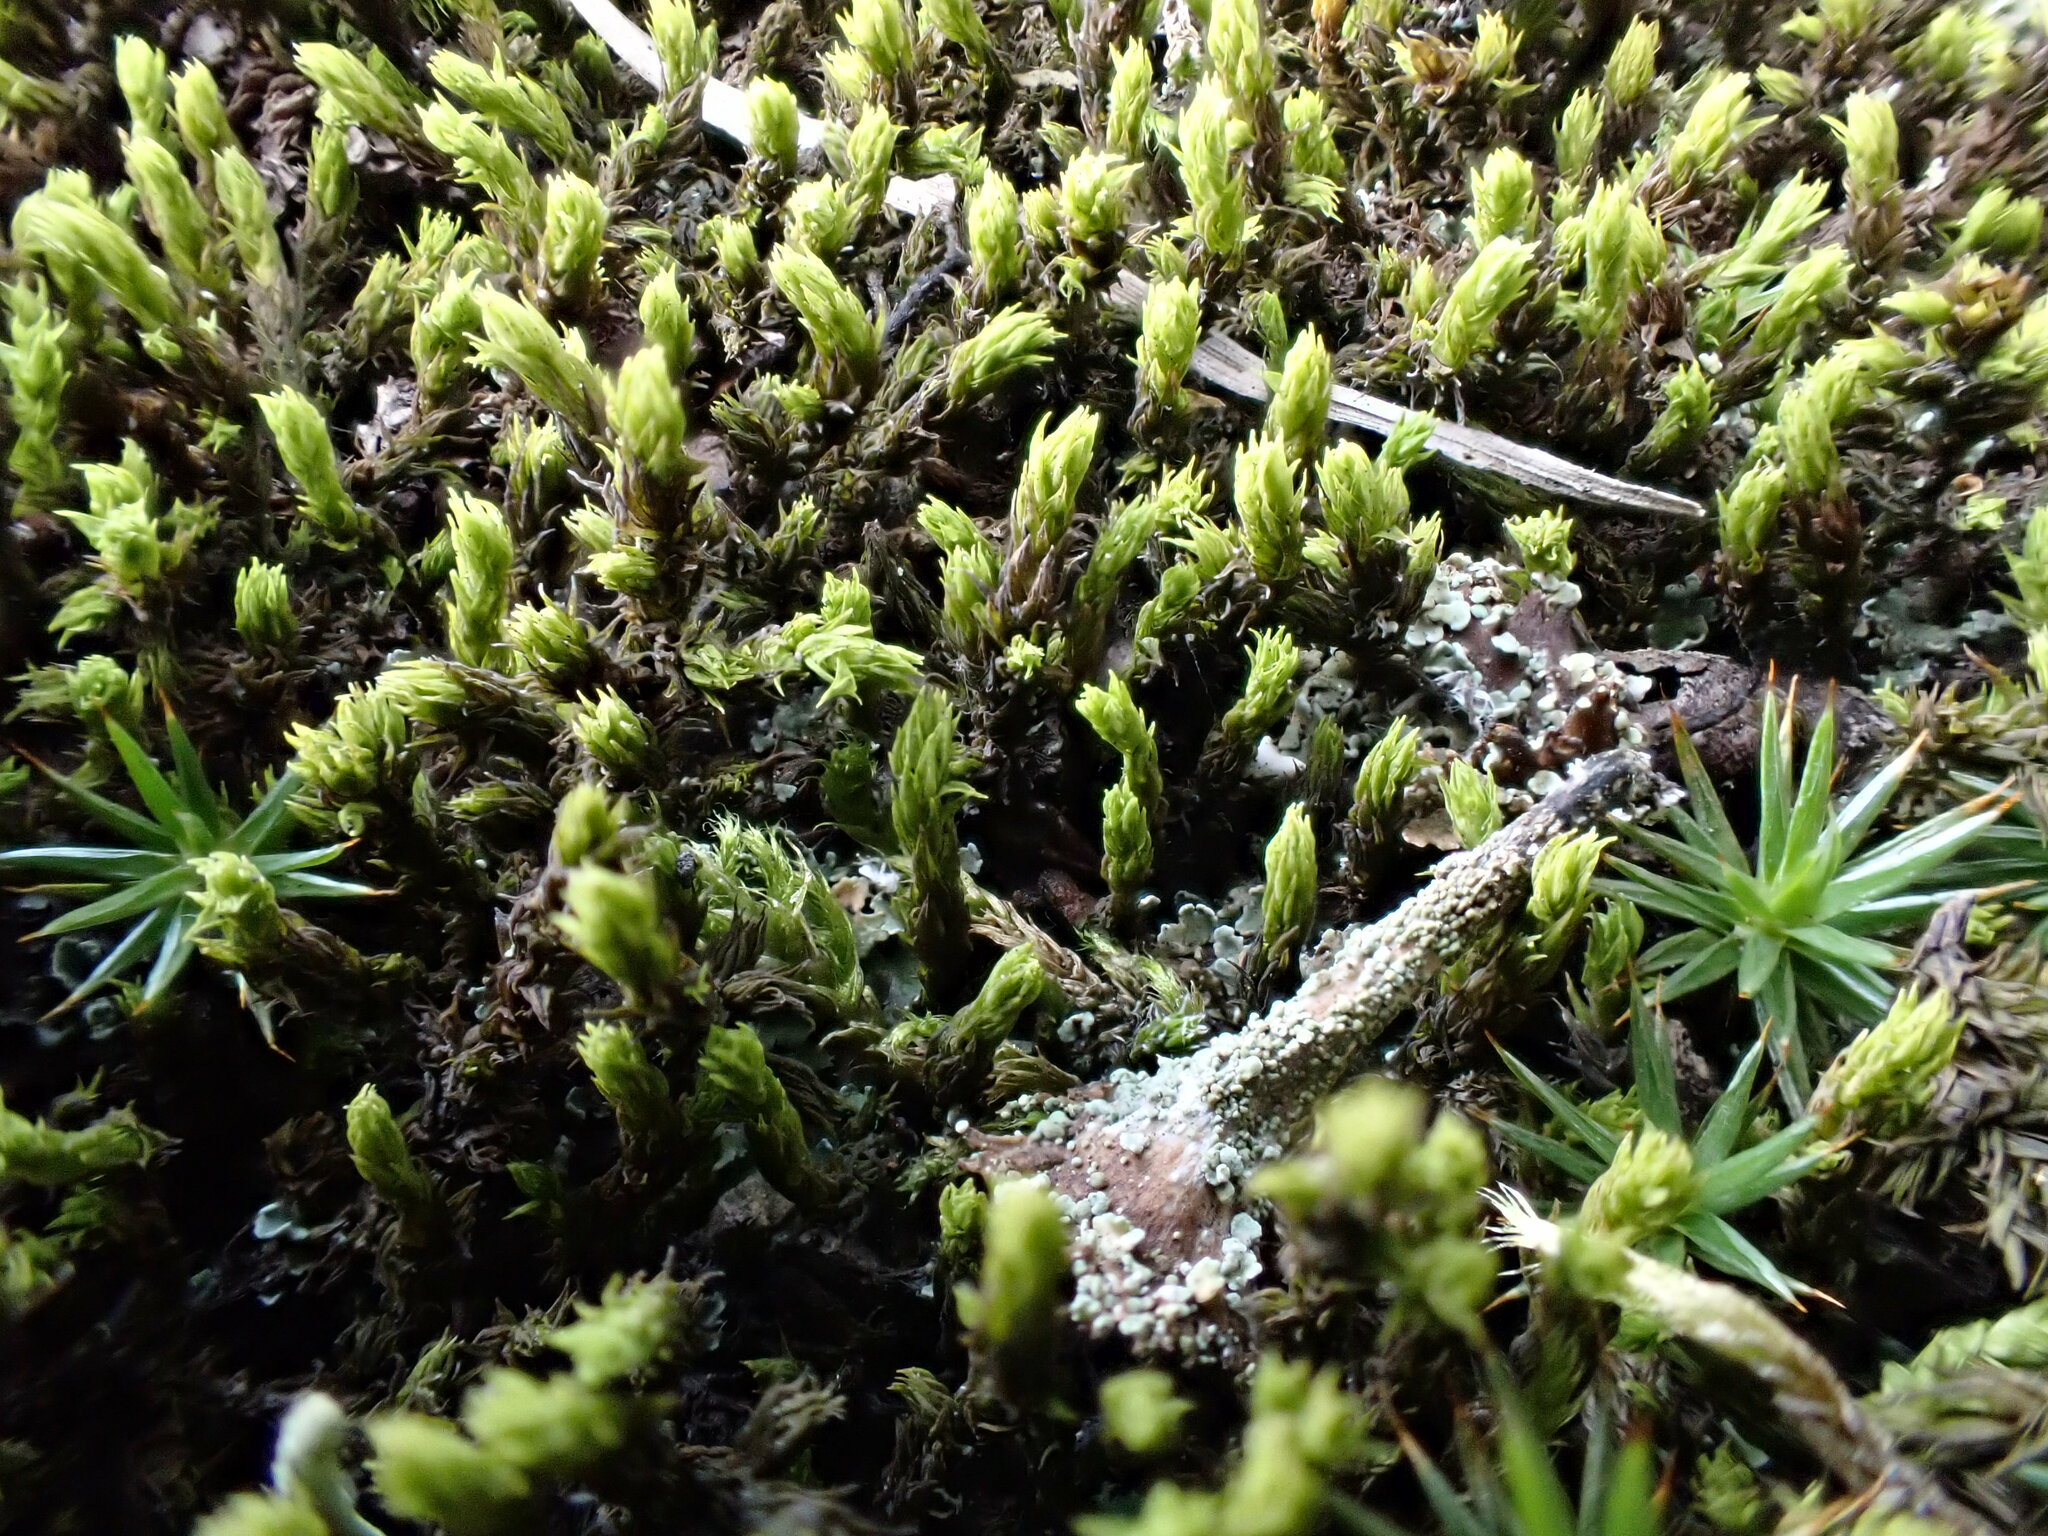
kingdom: Plantae
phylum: Bryophyta
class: Polytrichopsida
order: Polytrichales
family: Polytrichaceae
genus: Polytrichum
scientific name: Polytrichum juniperinum
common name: Juniper haircap moss
